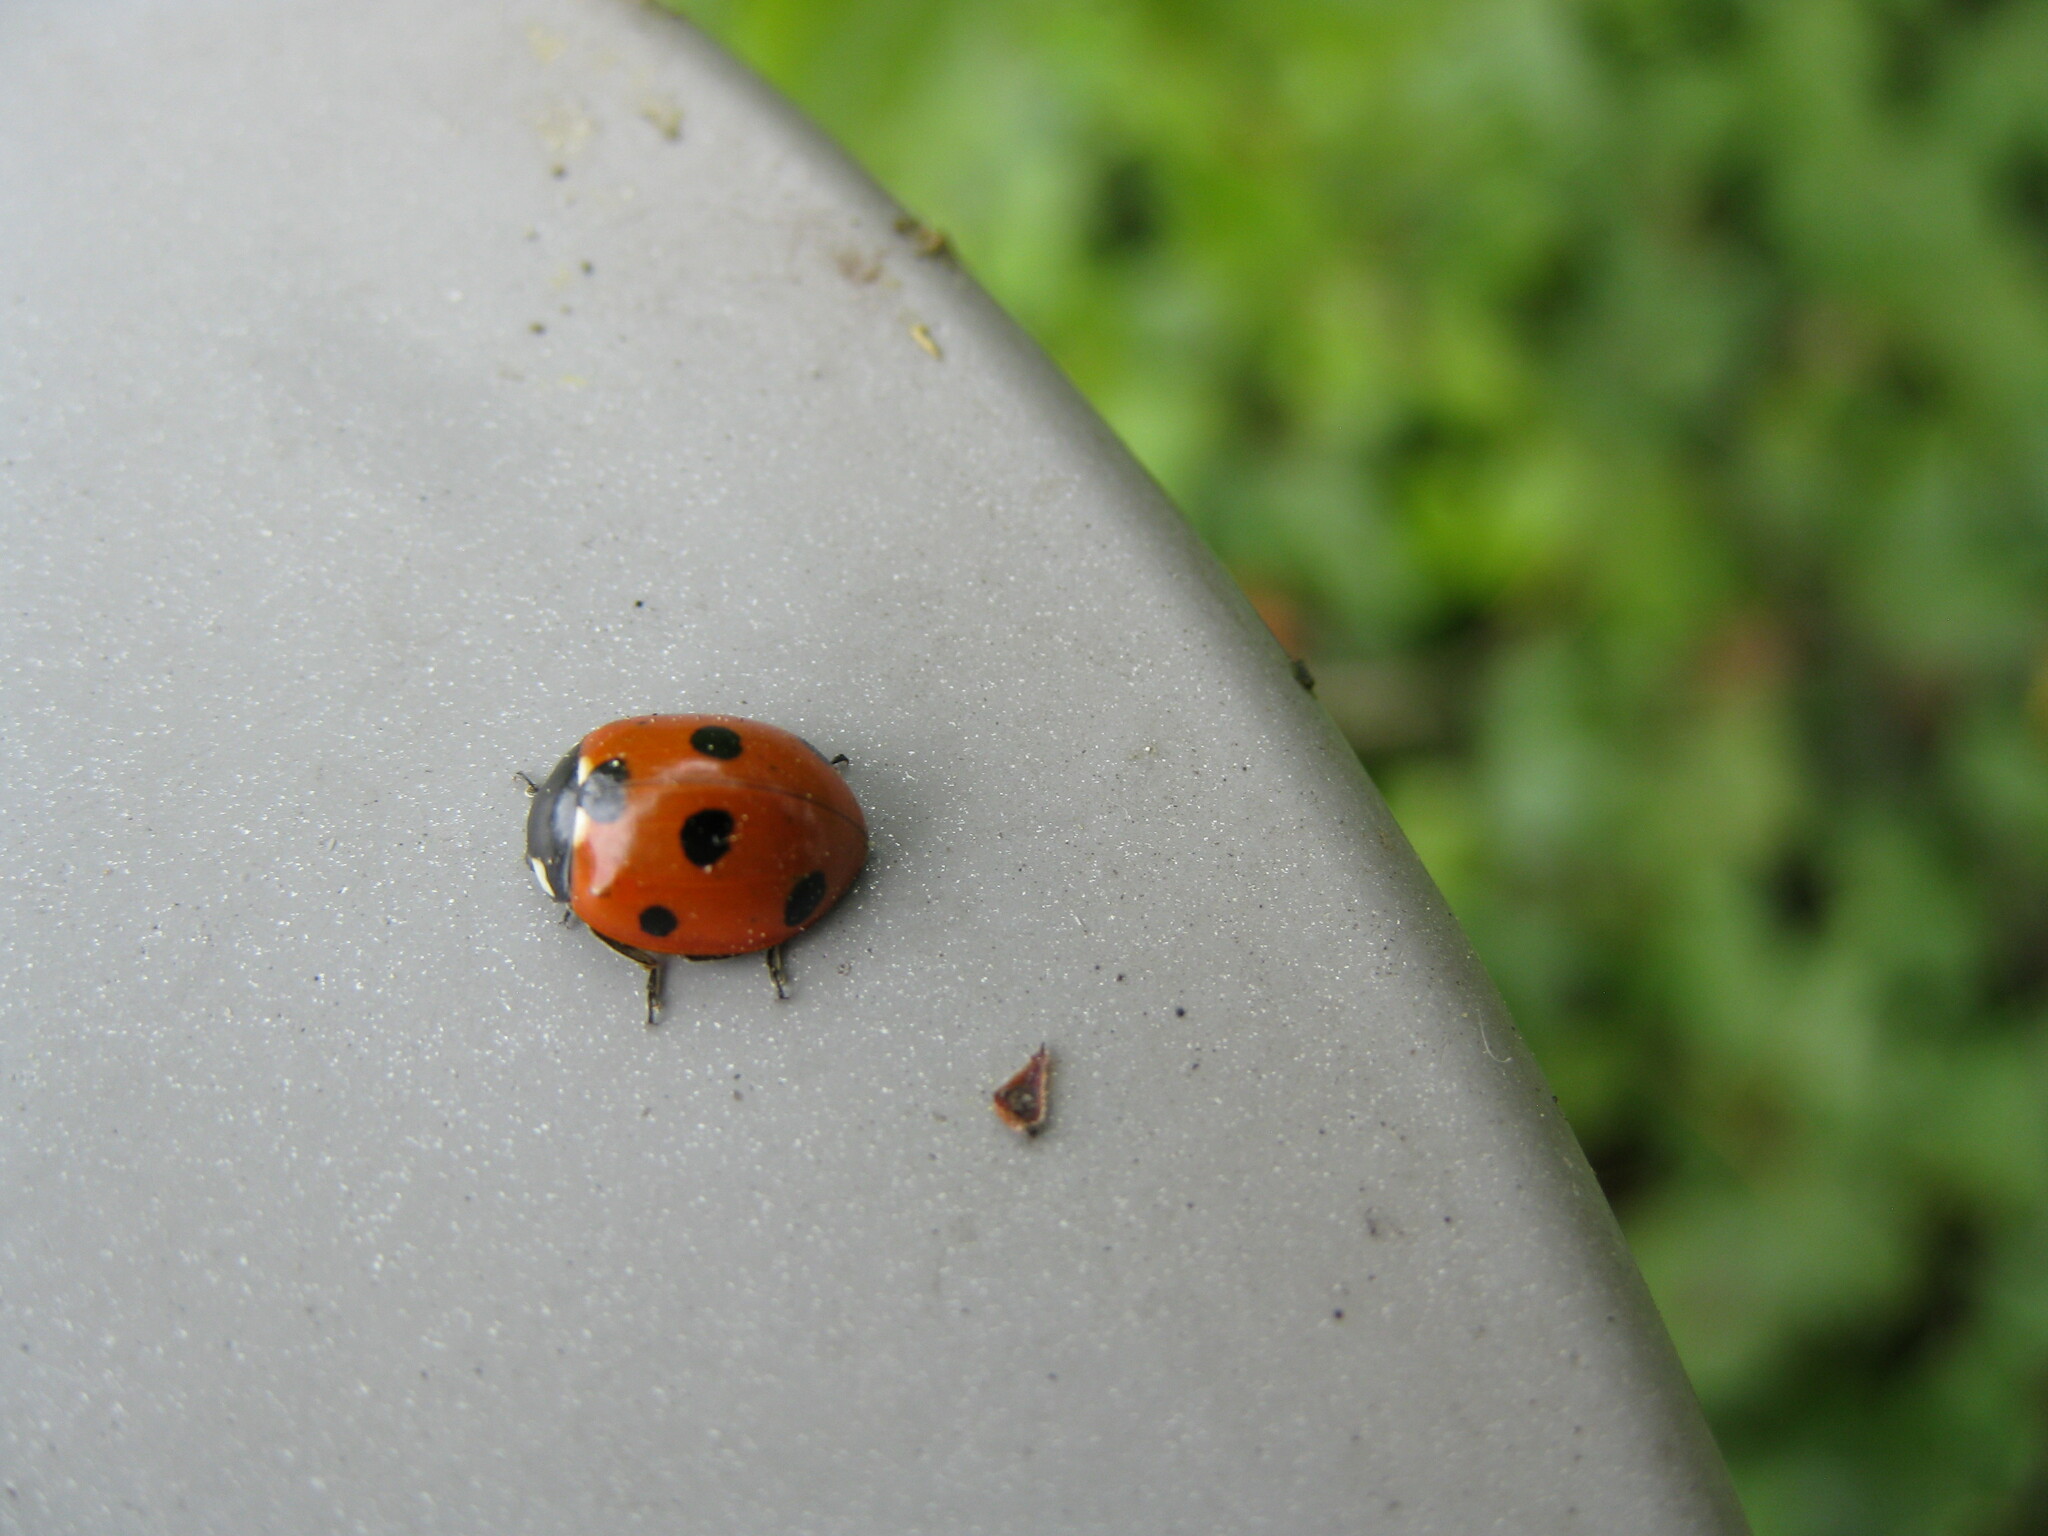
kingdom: Animalia
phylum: Arthropoda
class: Insecta
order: Coleoptera
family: Coccinellidae
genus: Coccinella
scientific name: Coccinella septempunctata
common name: Sevenspotted lady beetle
